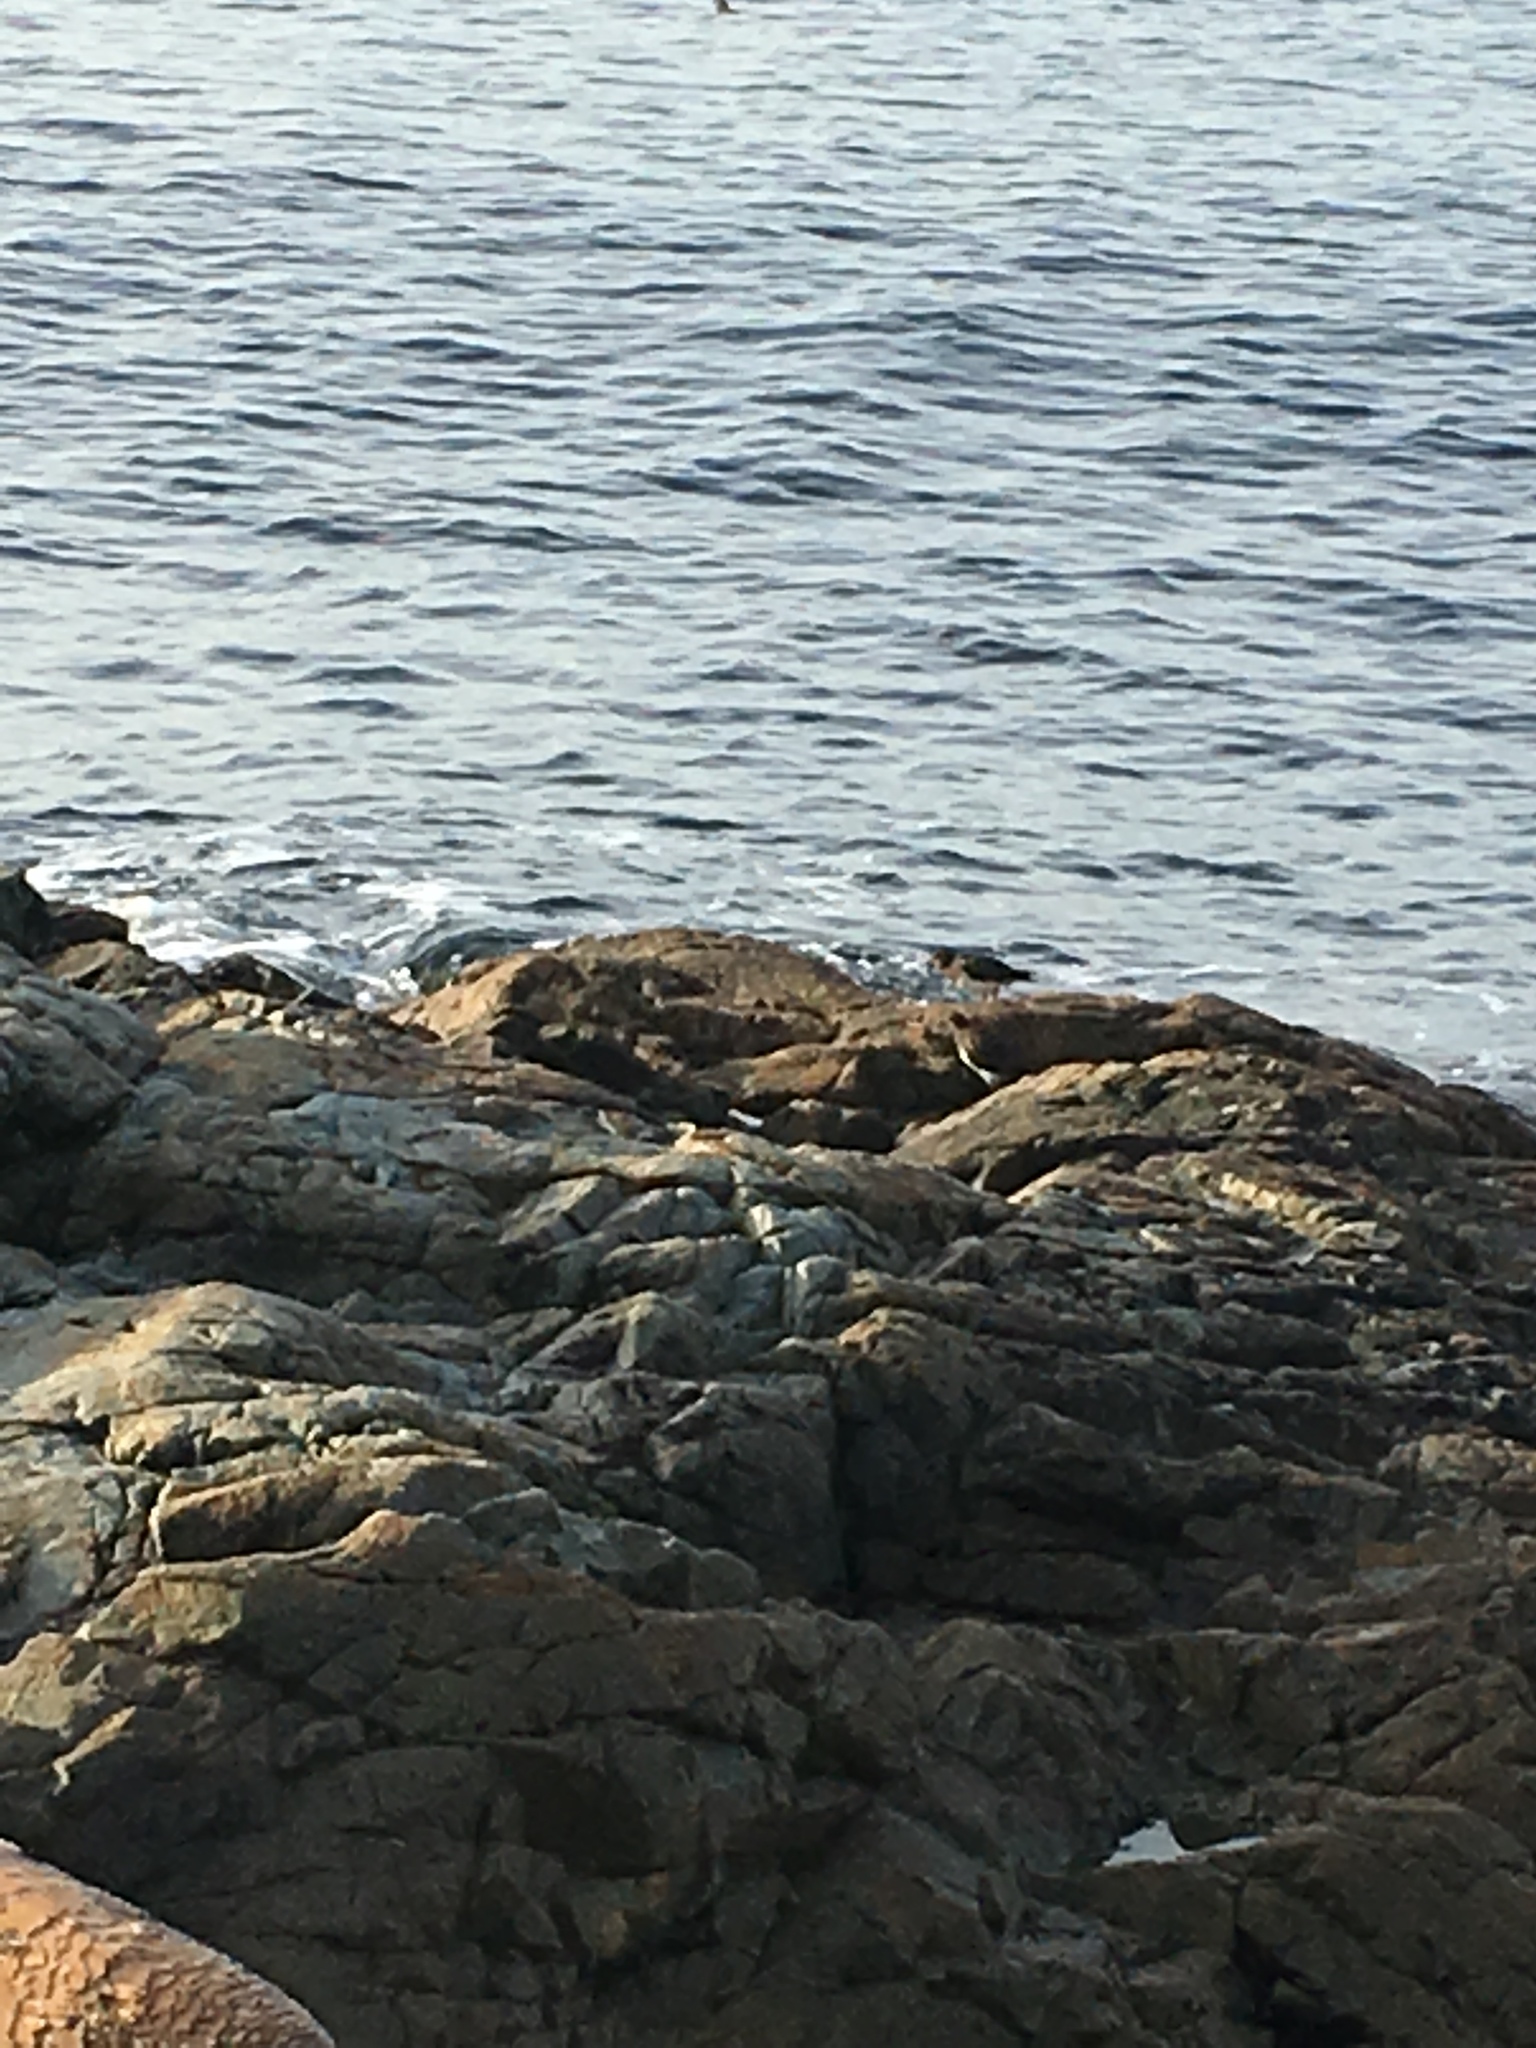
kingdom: Animalia
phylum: Chordata
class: Aves
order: Charadriiformes
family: Scolopacidae
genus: Arenaria
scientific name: Arenaria melanocephala
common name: Black turnstone
